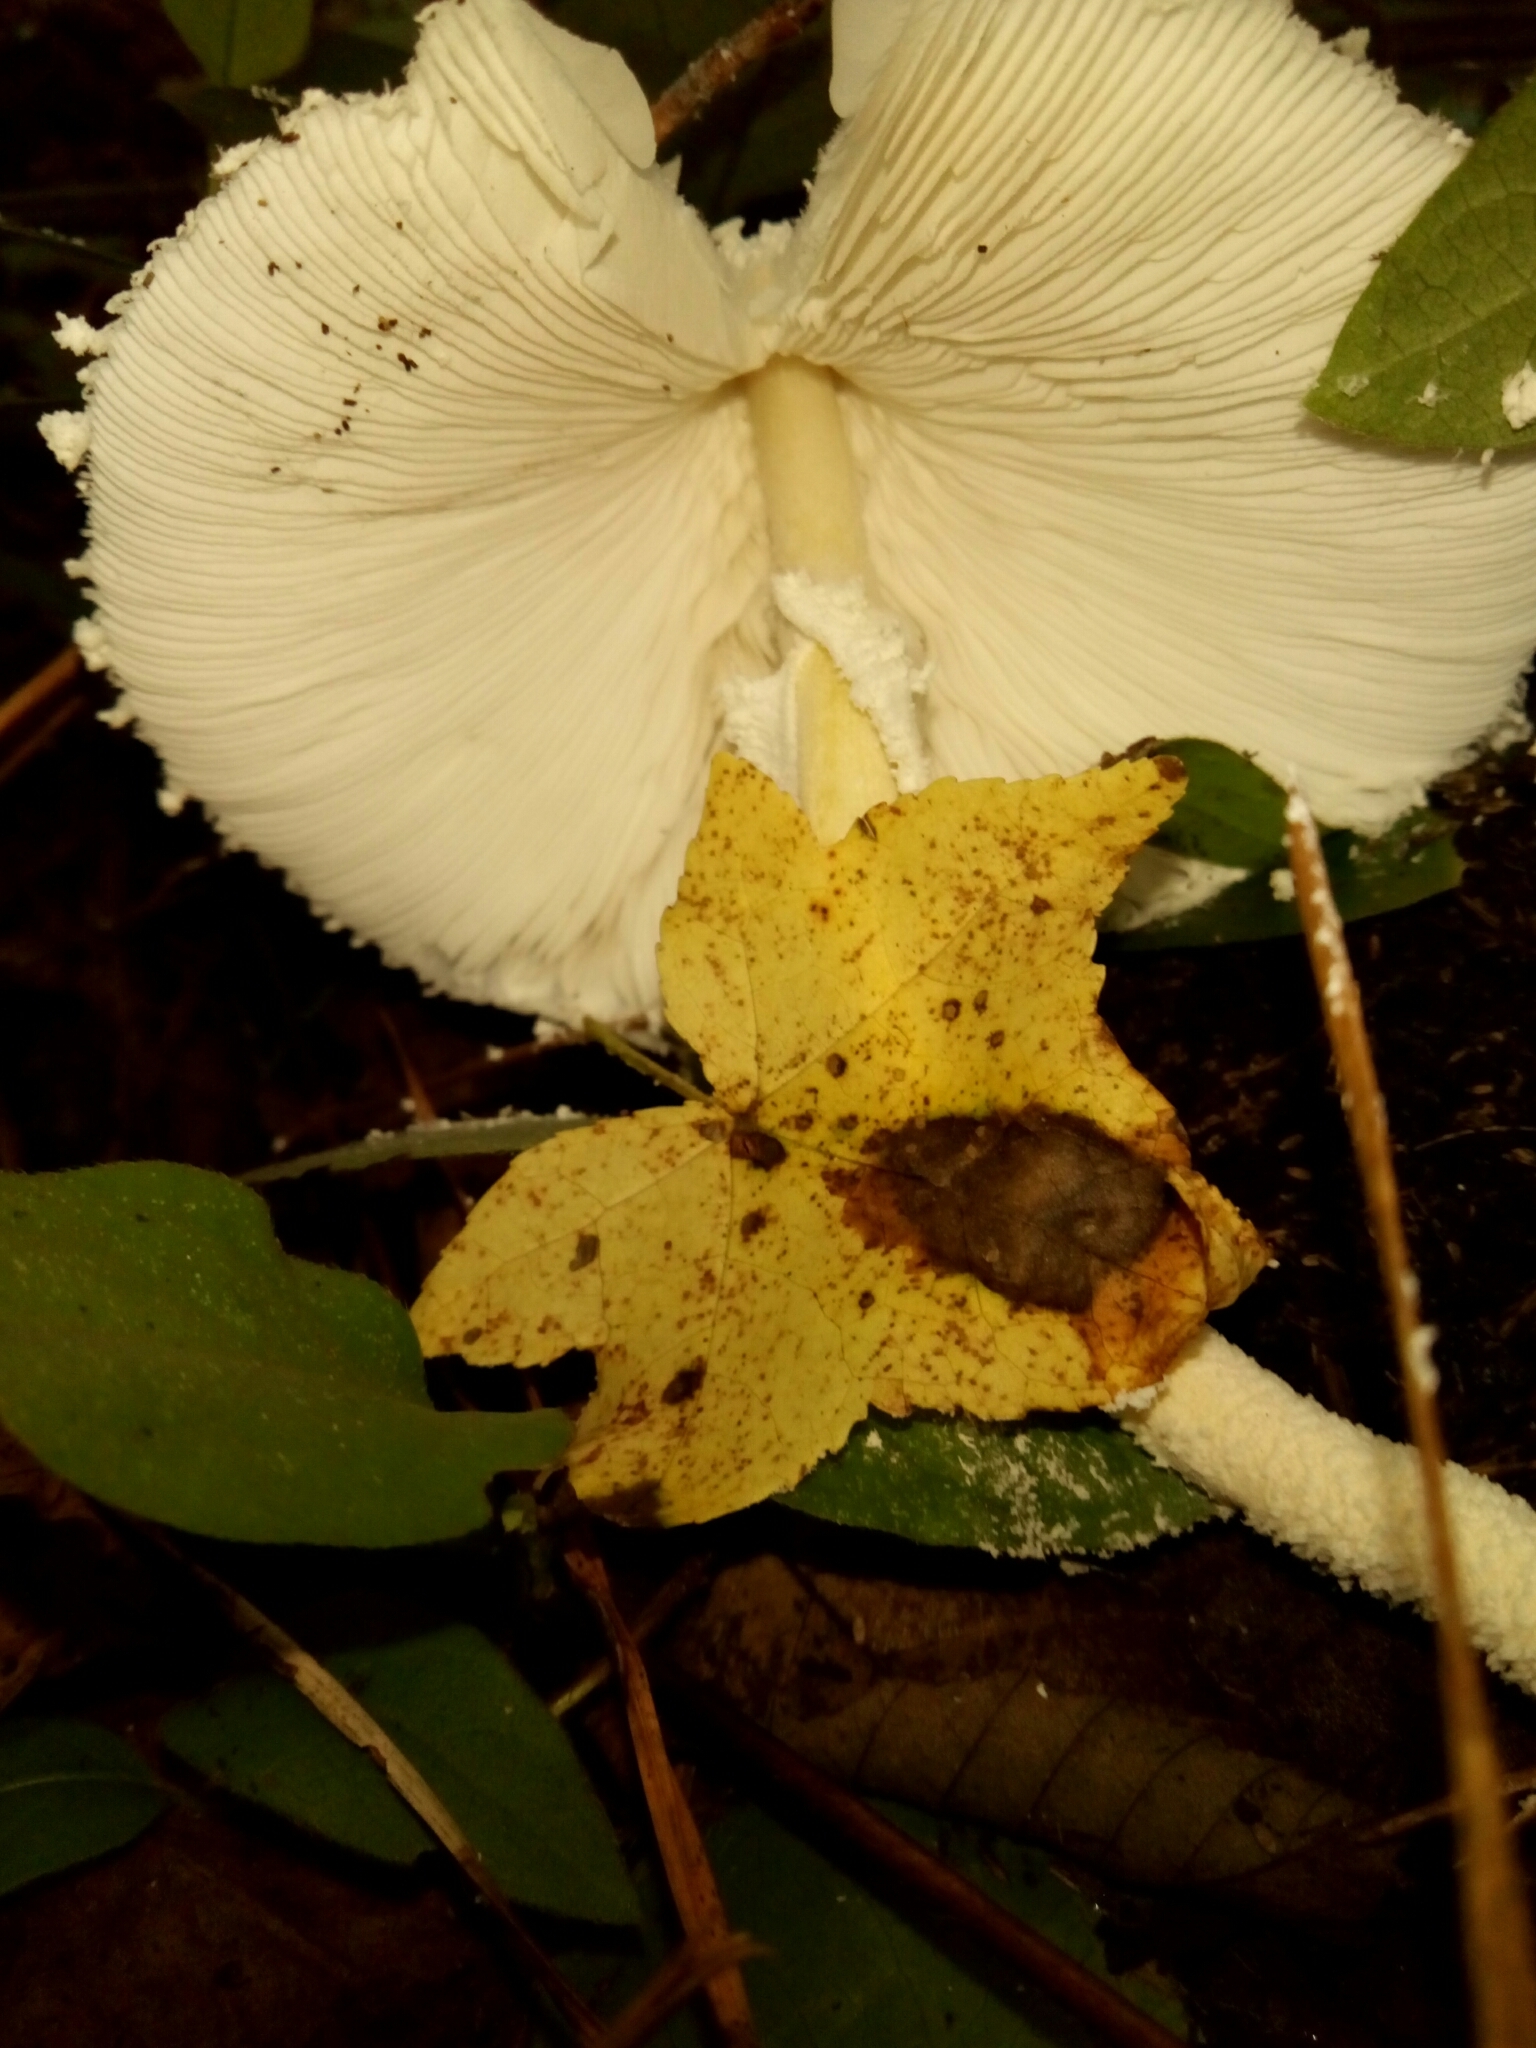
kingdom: Fungi
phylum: Basidiomycota
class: Agaricomycetes
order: Agaricales
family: Agaricaceae
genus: Leucocoprinus
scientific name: Leucocoprinus cretaceus
